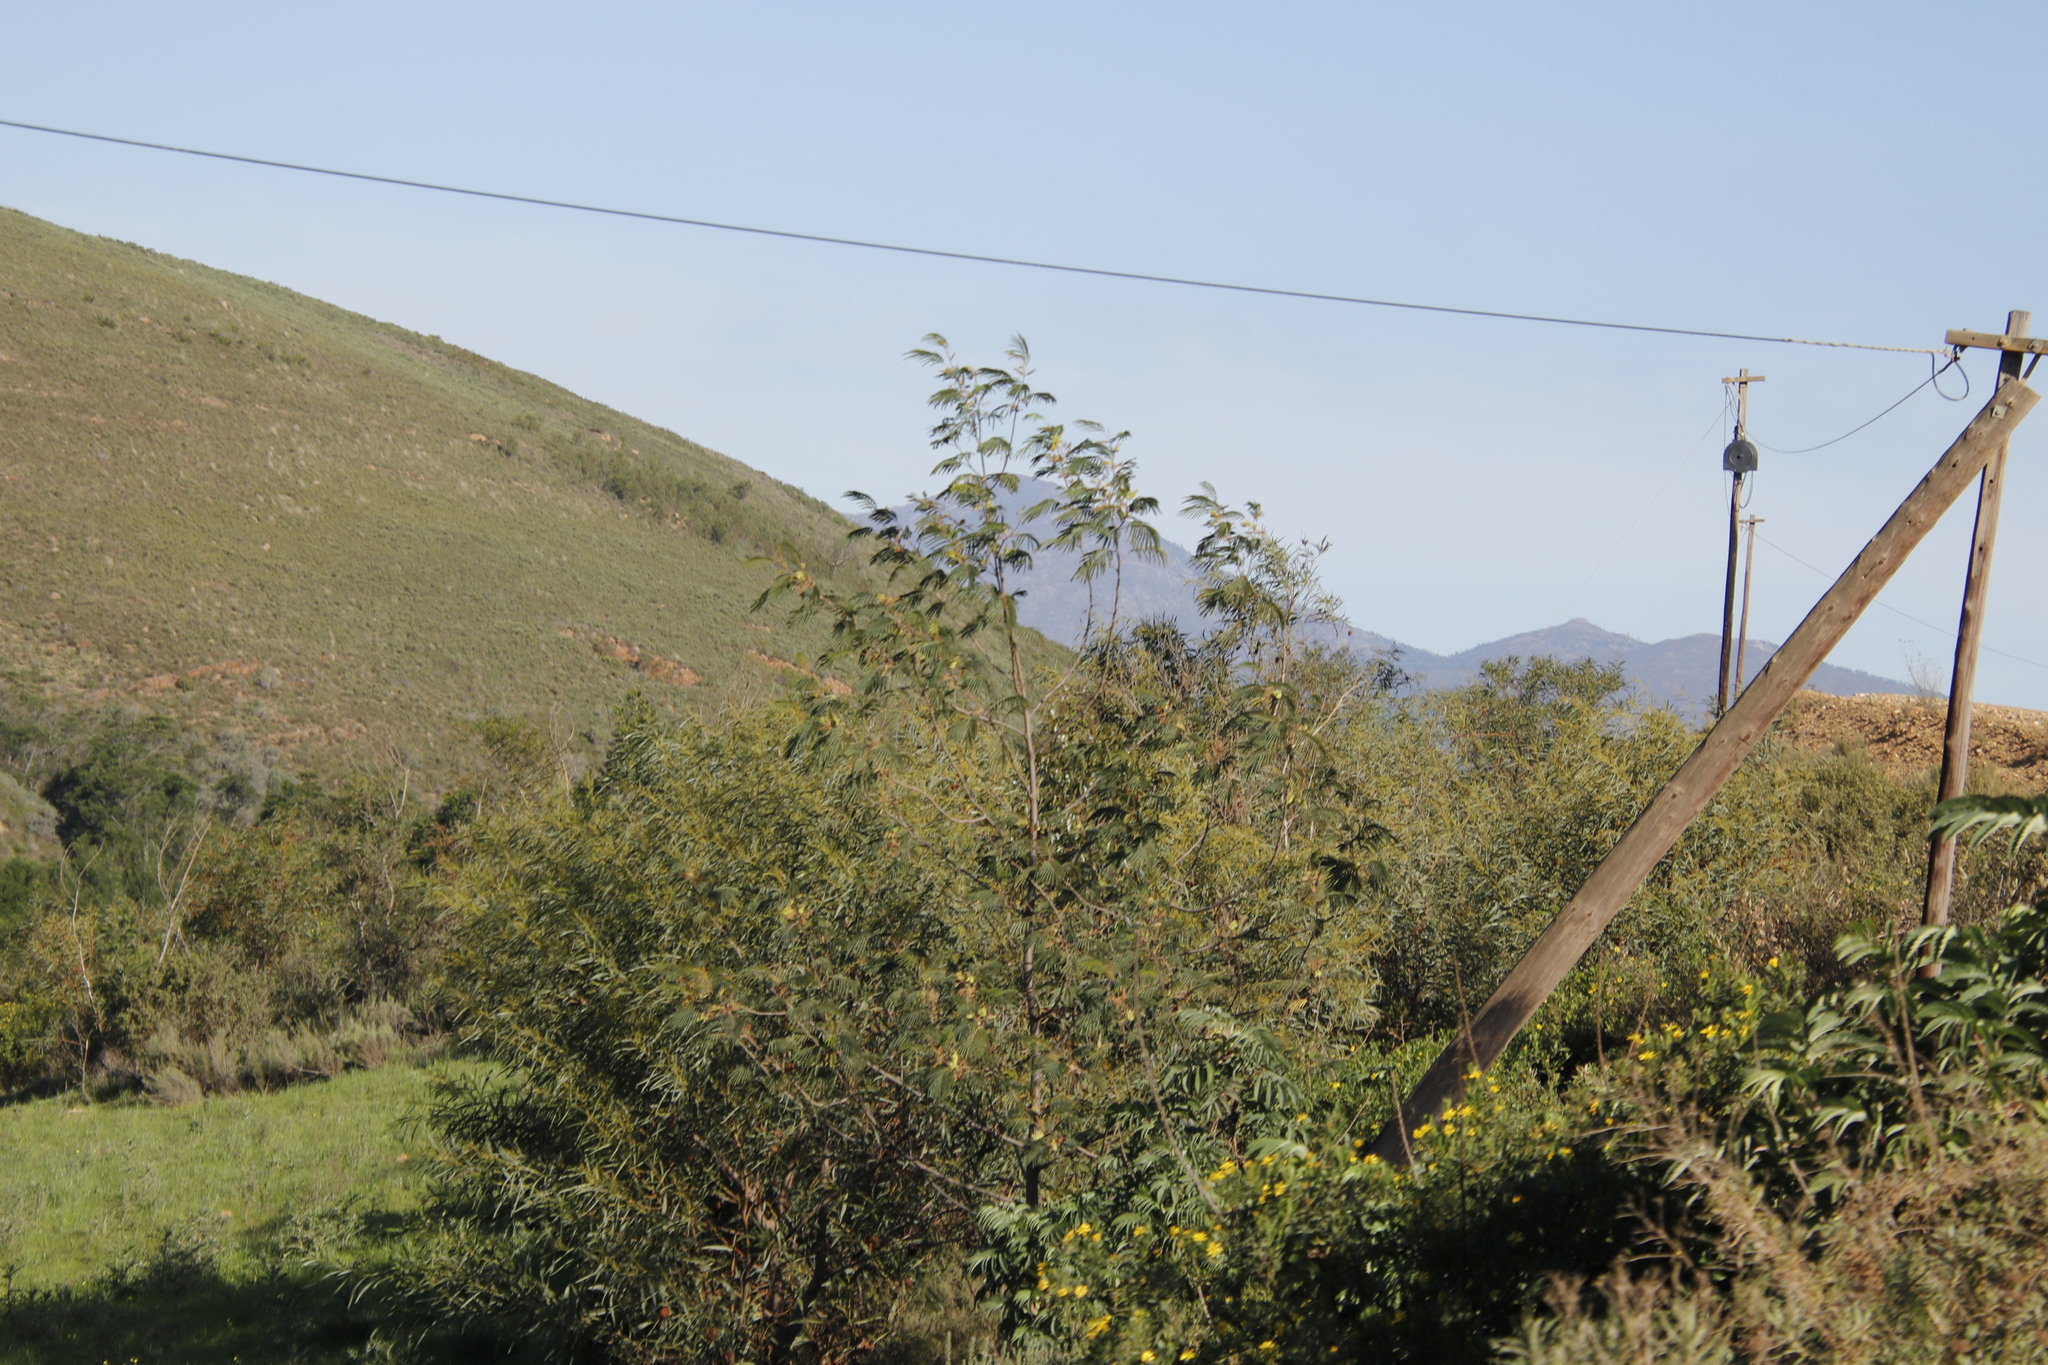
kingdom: Plantae
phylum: Tracheophyta
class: Magnoliopsida
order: Fabales
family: Fabaceae
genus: Paraserianthes
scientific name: Paraserianthes lophantha
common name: Plume albizia
